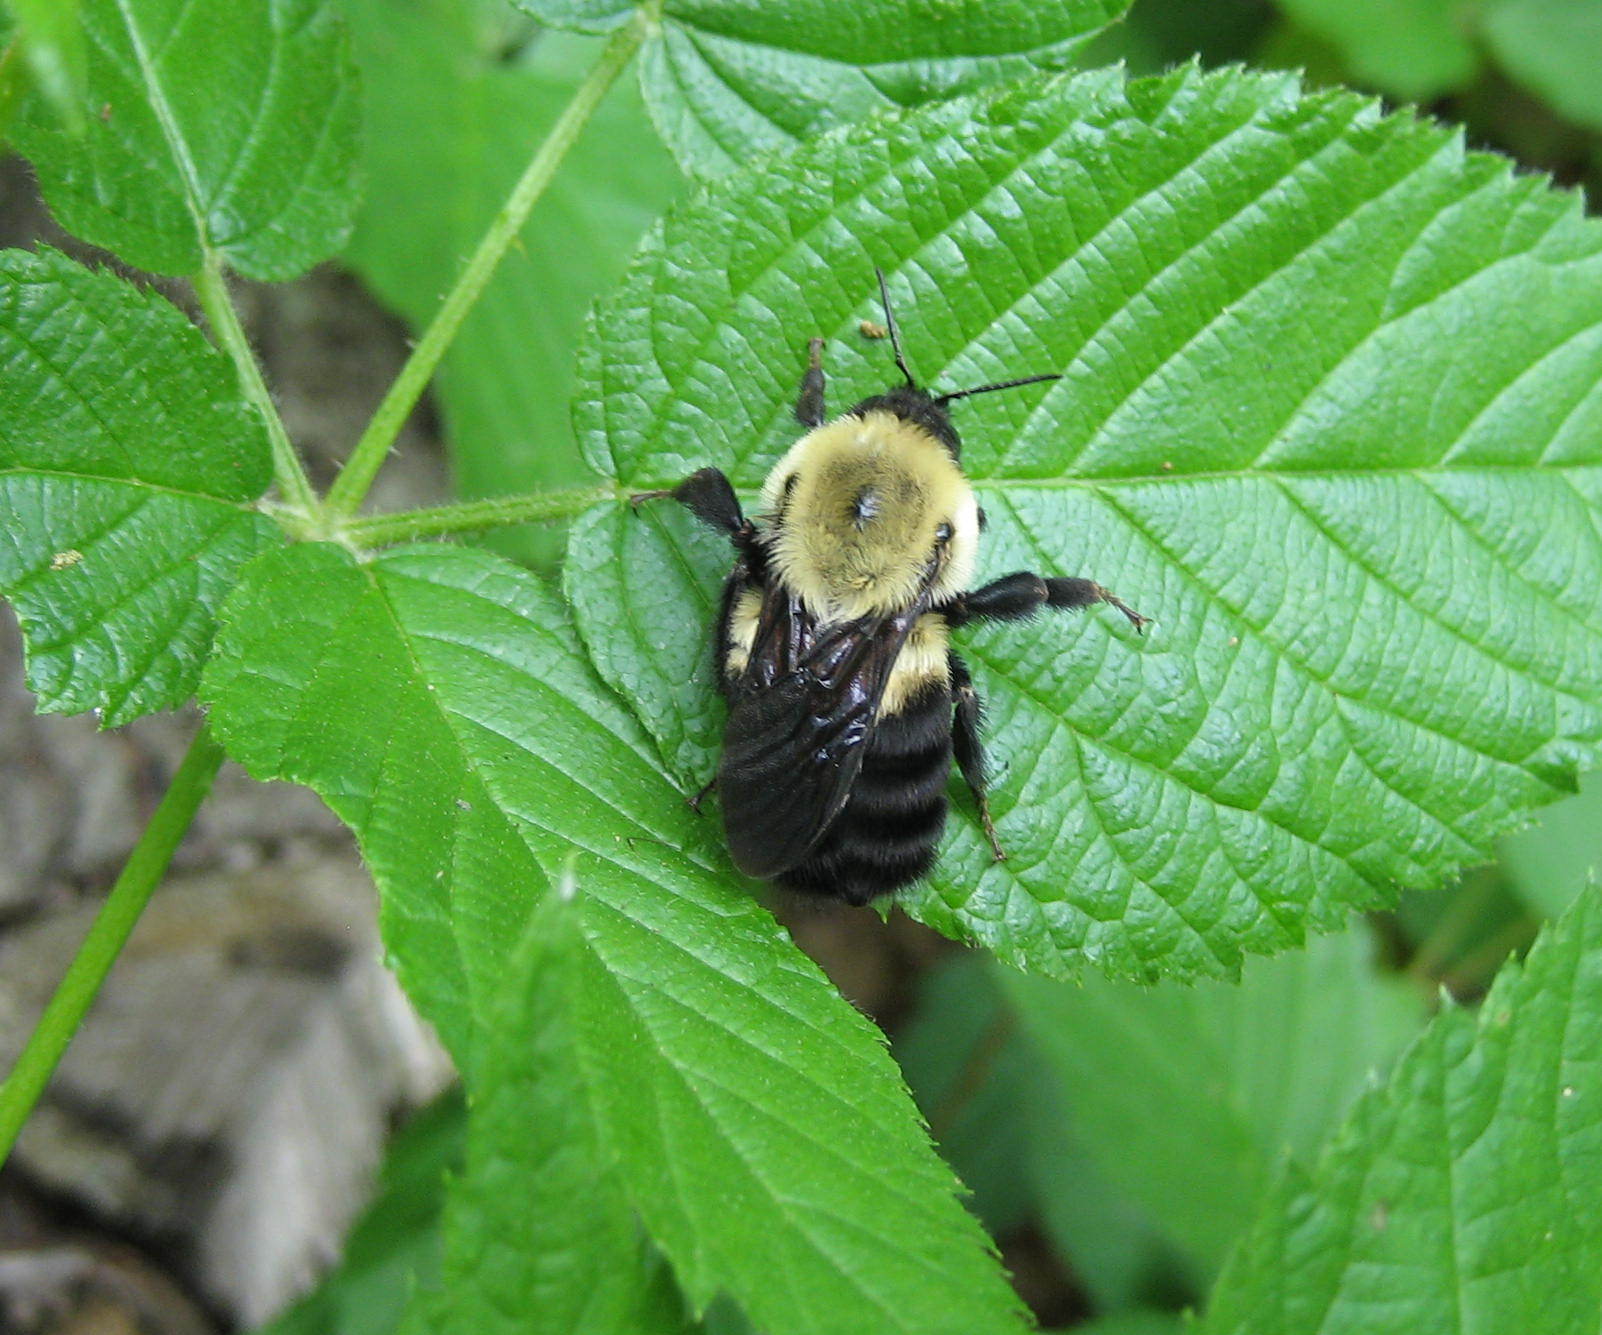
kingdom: Animalia
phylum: Arthropoda
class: Insecta
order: Hymenoptera
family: Apidae
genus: Bombus
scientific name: Bombus griseocollis
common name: Brown-belted bumble bee
